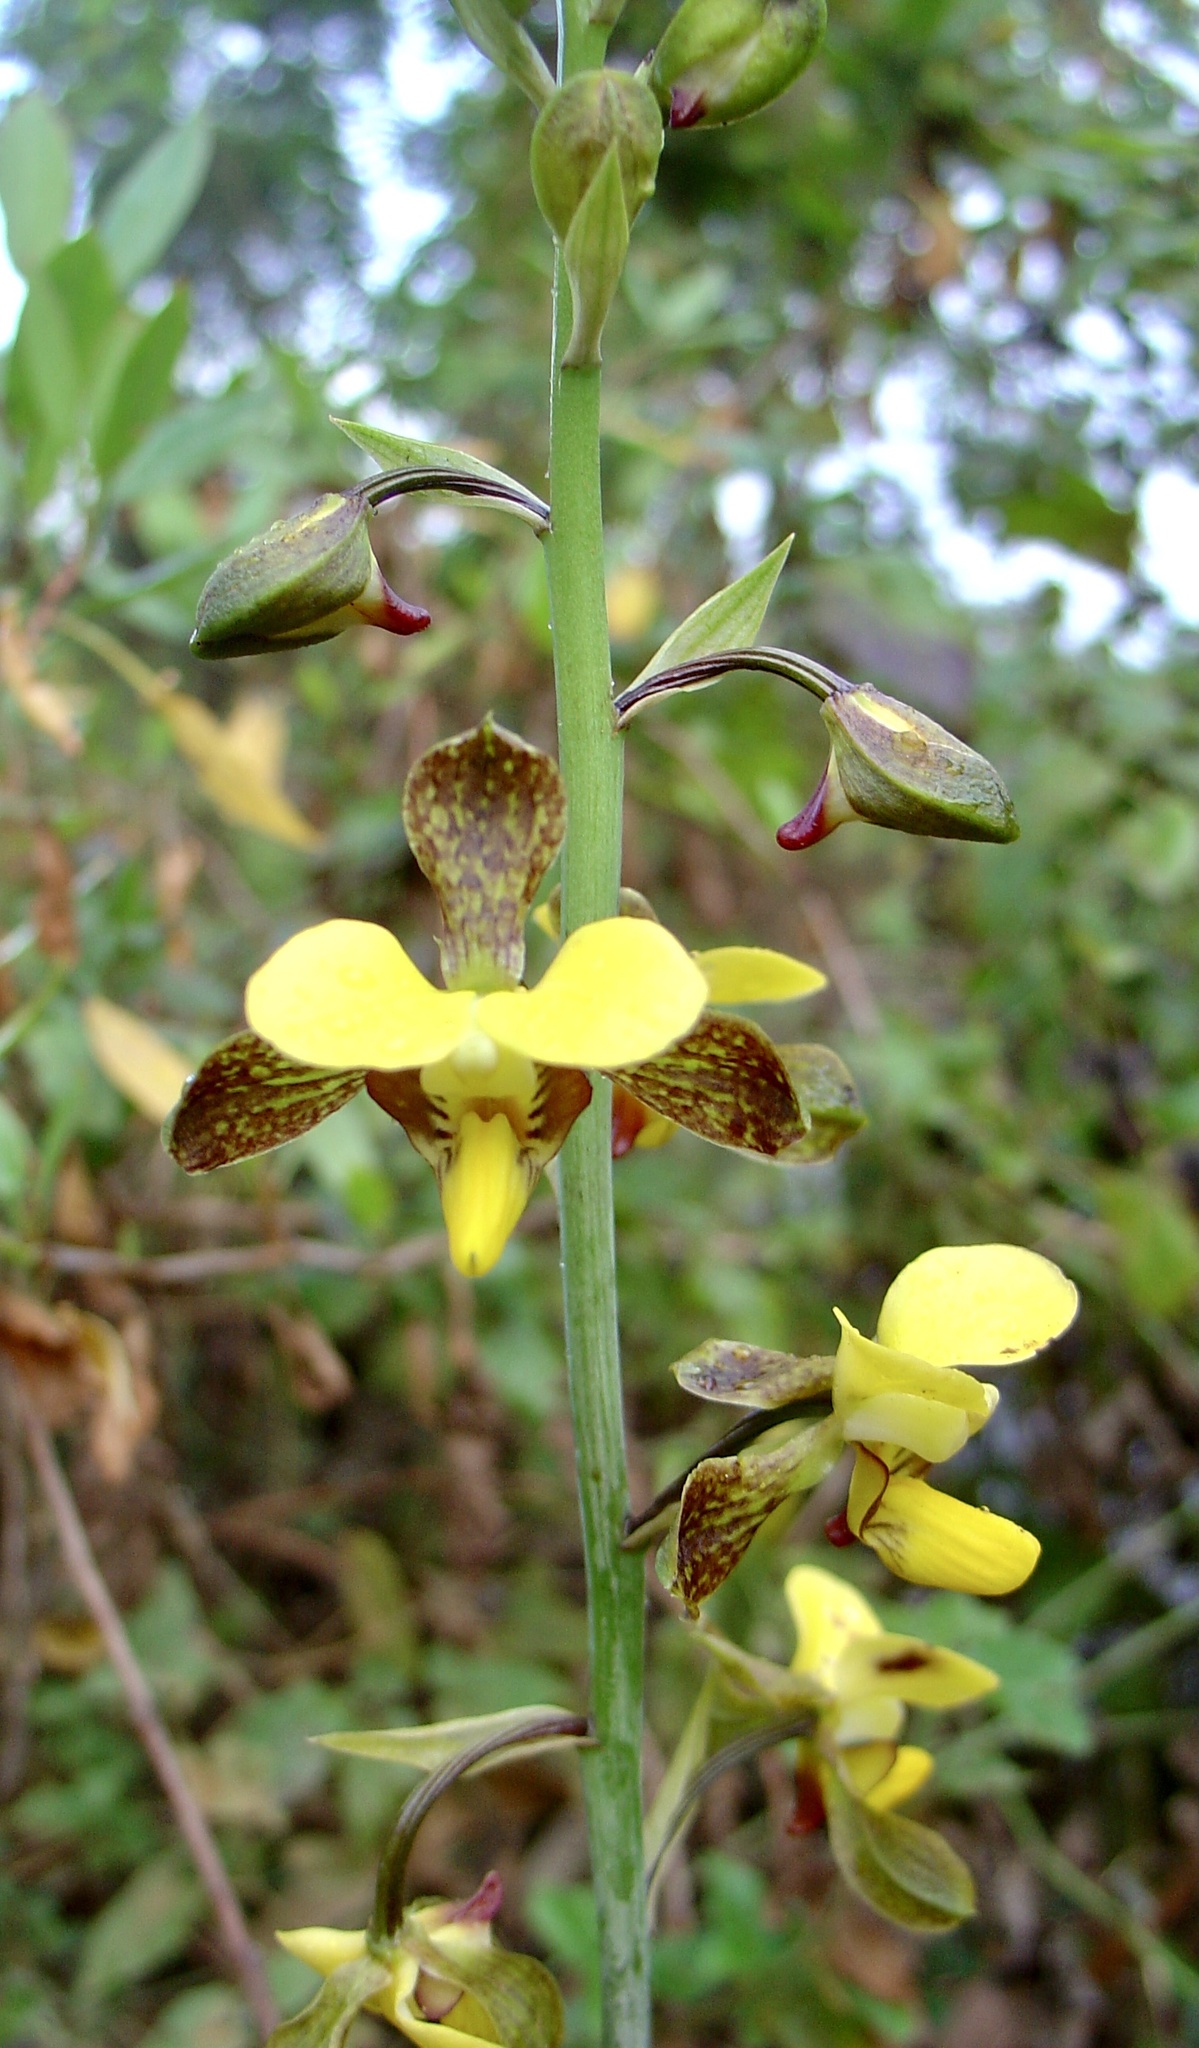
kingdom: Plantae
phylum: Tracheophyta
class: Liliopsida
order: Asparagales
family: Orchidaceae
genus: Eulophia
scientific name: Eulophia streptopetala
